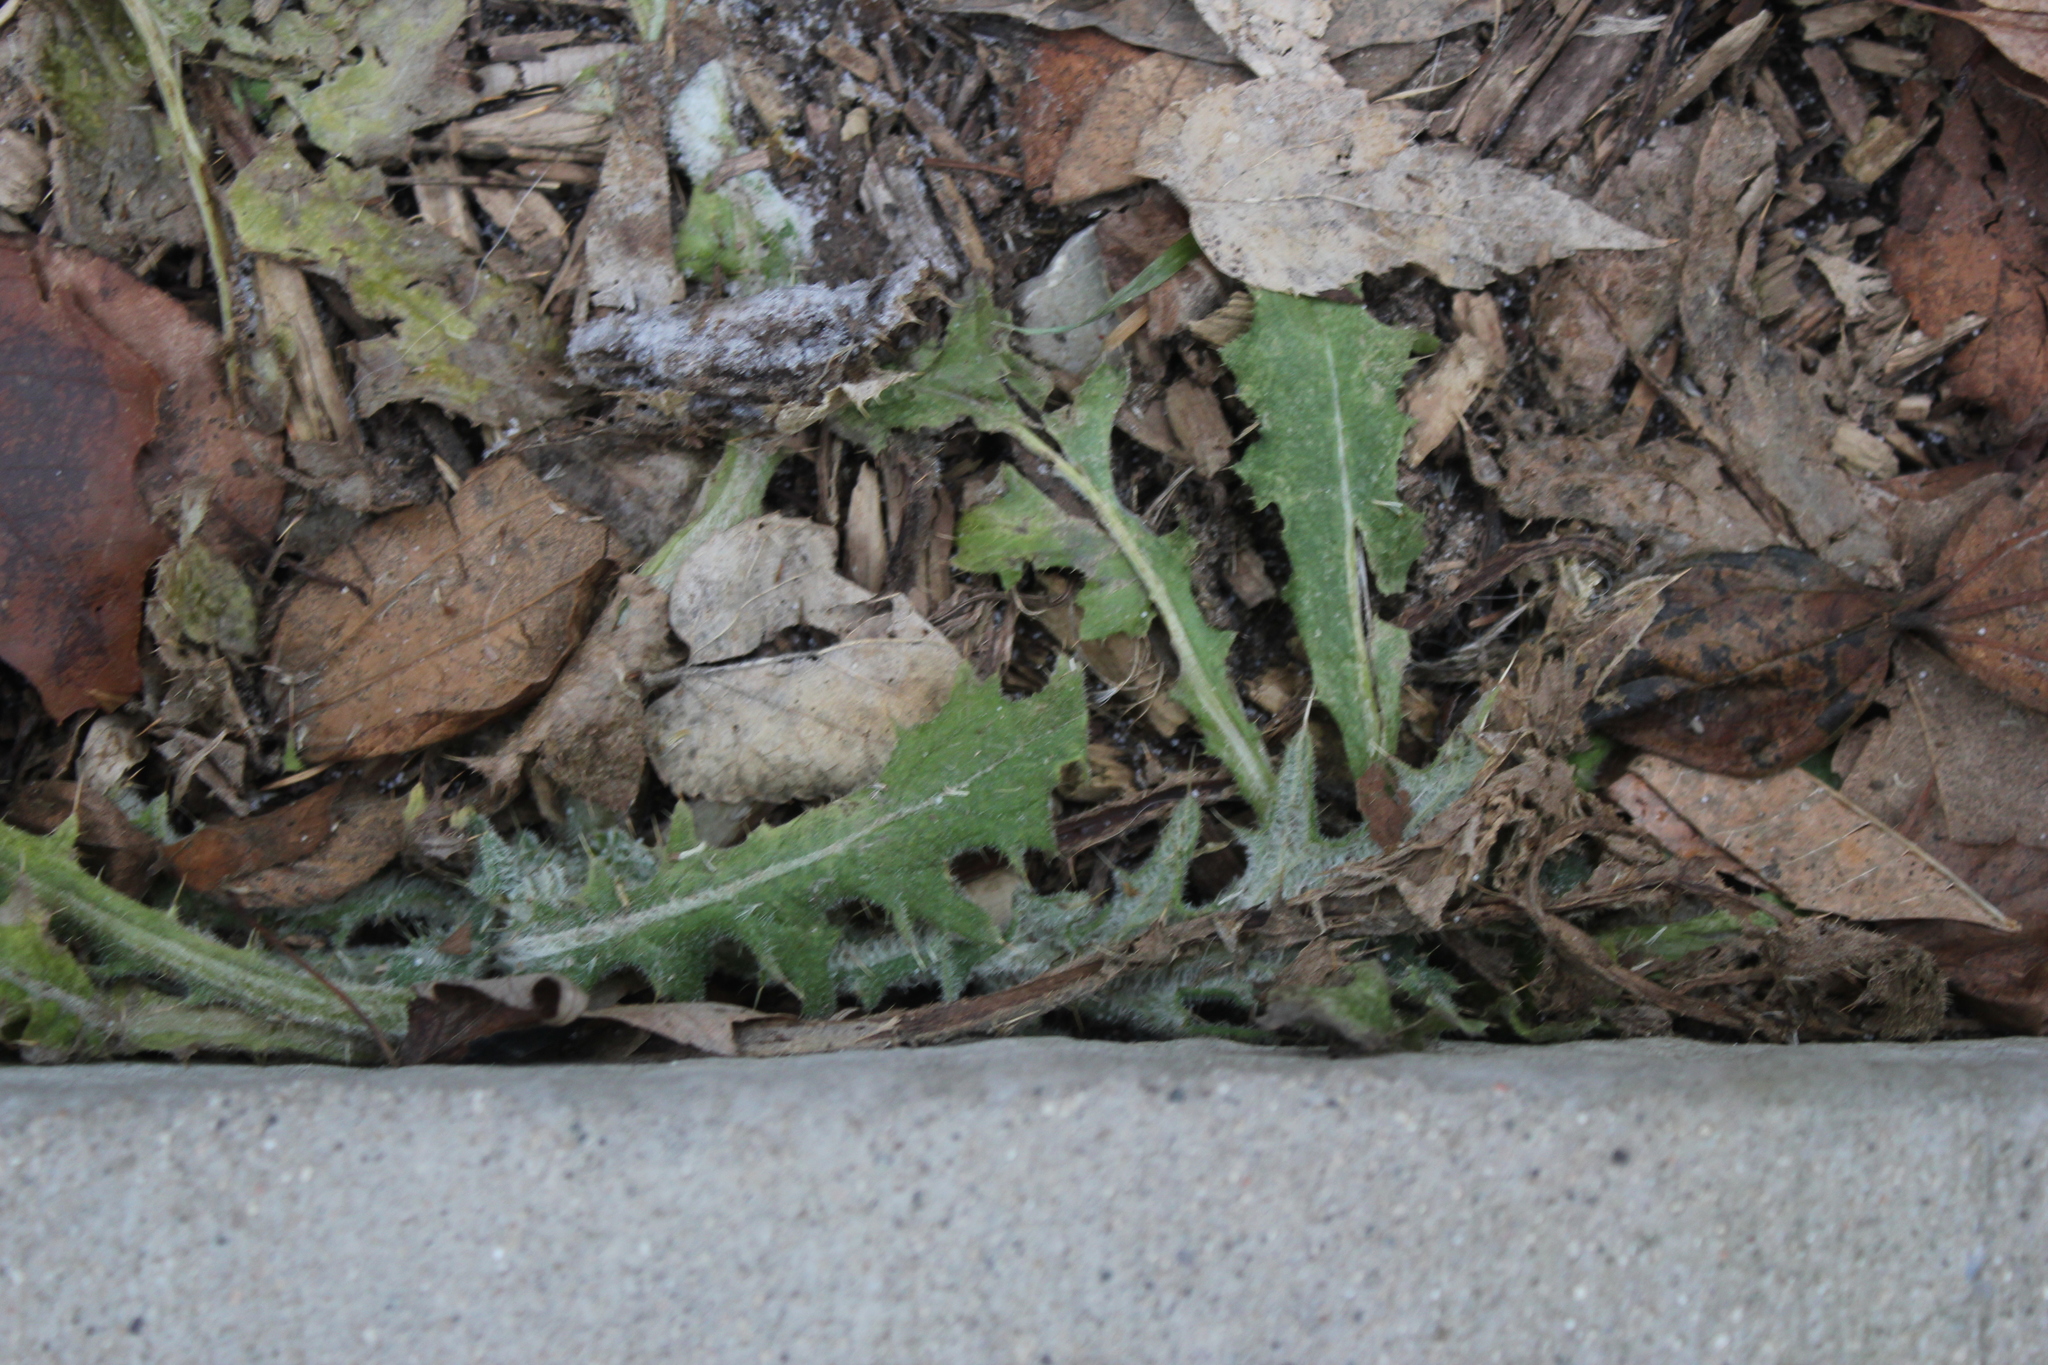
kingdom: Plantae
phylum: Tracheophyta
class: Magnoliopsida
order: Asterales
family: Asteraceae
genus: Cirsium
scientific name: Cirsium vulgare
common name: Bull thistle
